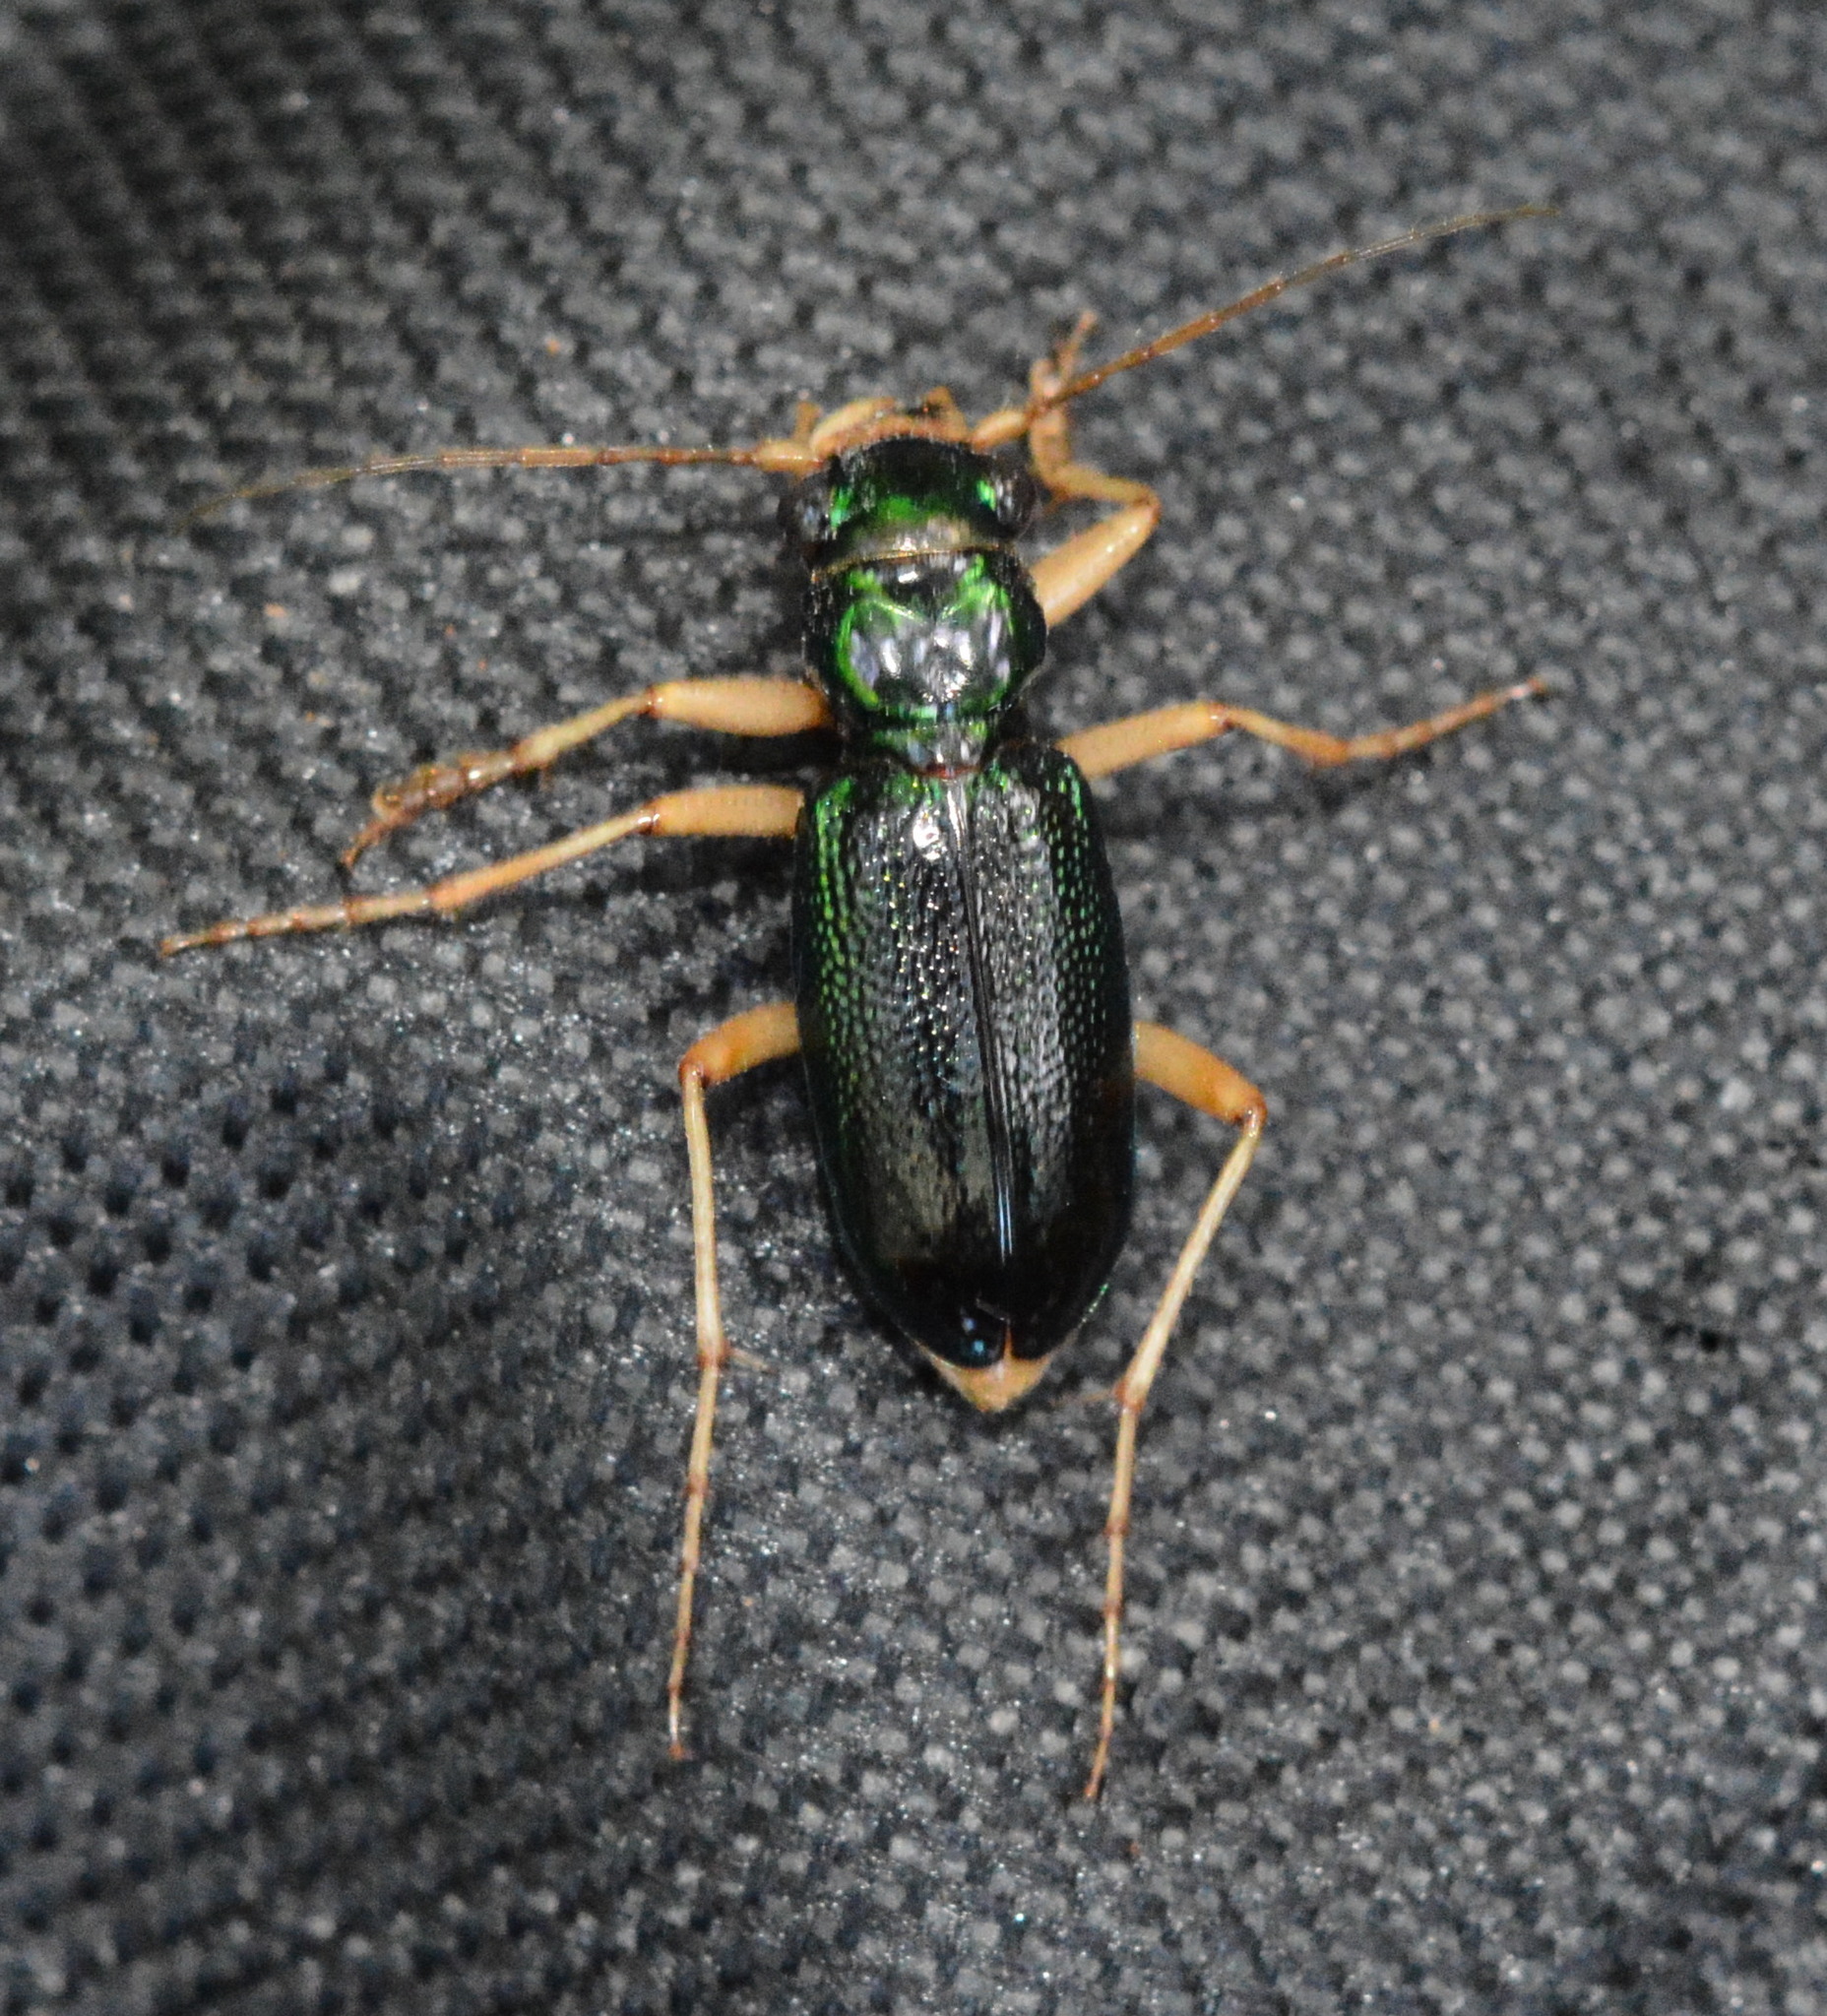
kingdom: Animalia
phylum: Arthropoda
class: Insecta
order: Coleoptera
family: Carabidae
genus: Tetracha
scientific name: Tetracha virginica
